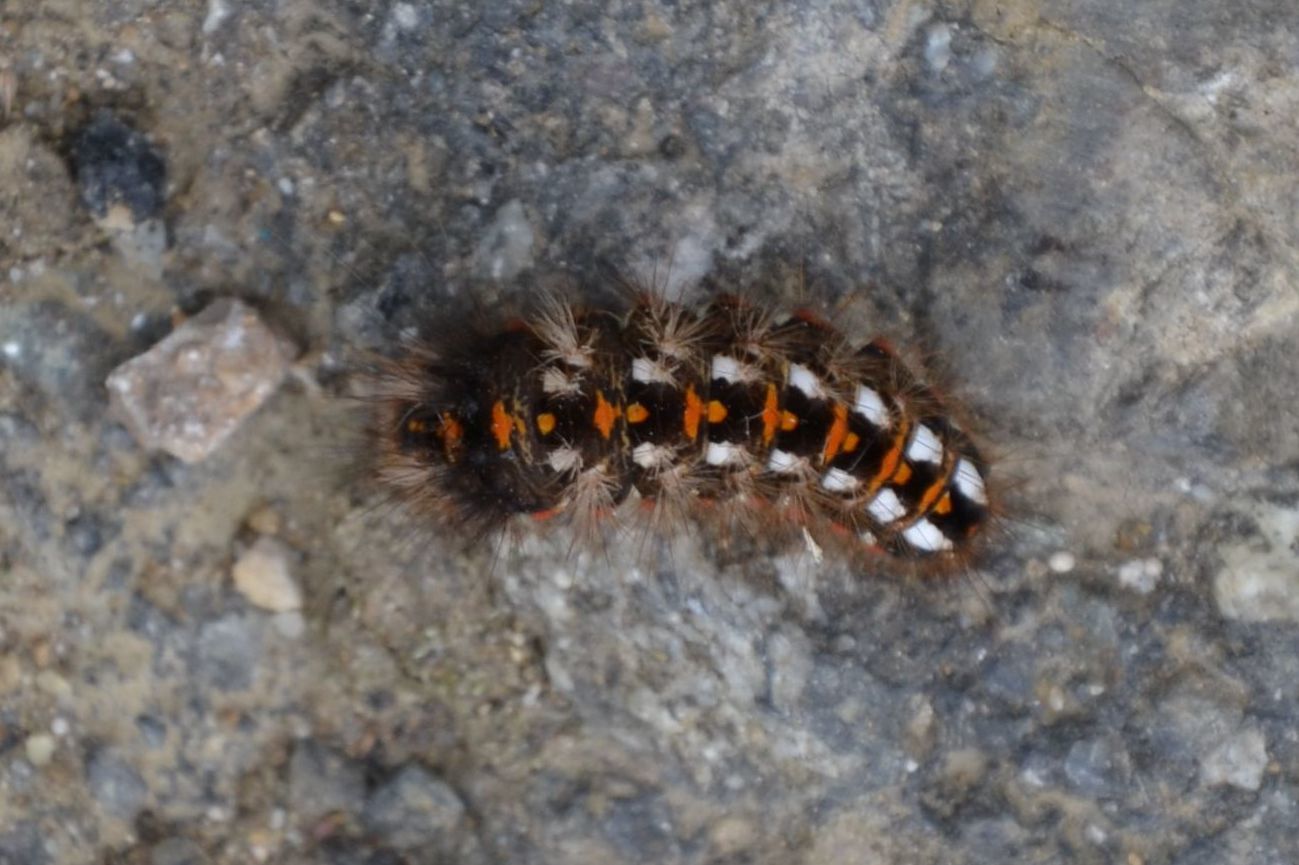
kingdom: Animalia
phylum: Arthropoda
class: Insecta
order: Lepidoptera
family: Noctuidae
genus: Acronicta
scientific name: Acronicta rumicis
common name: Knot grass
